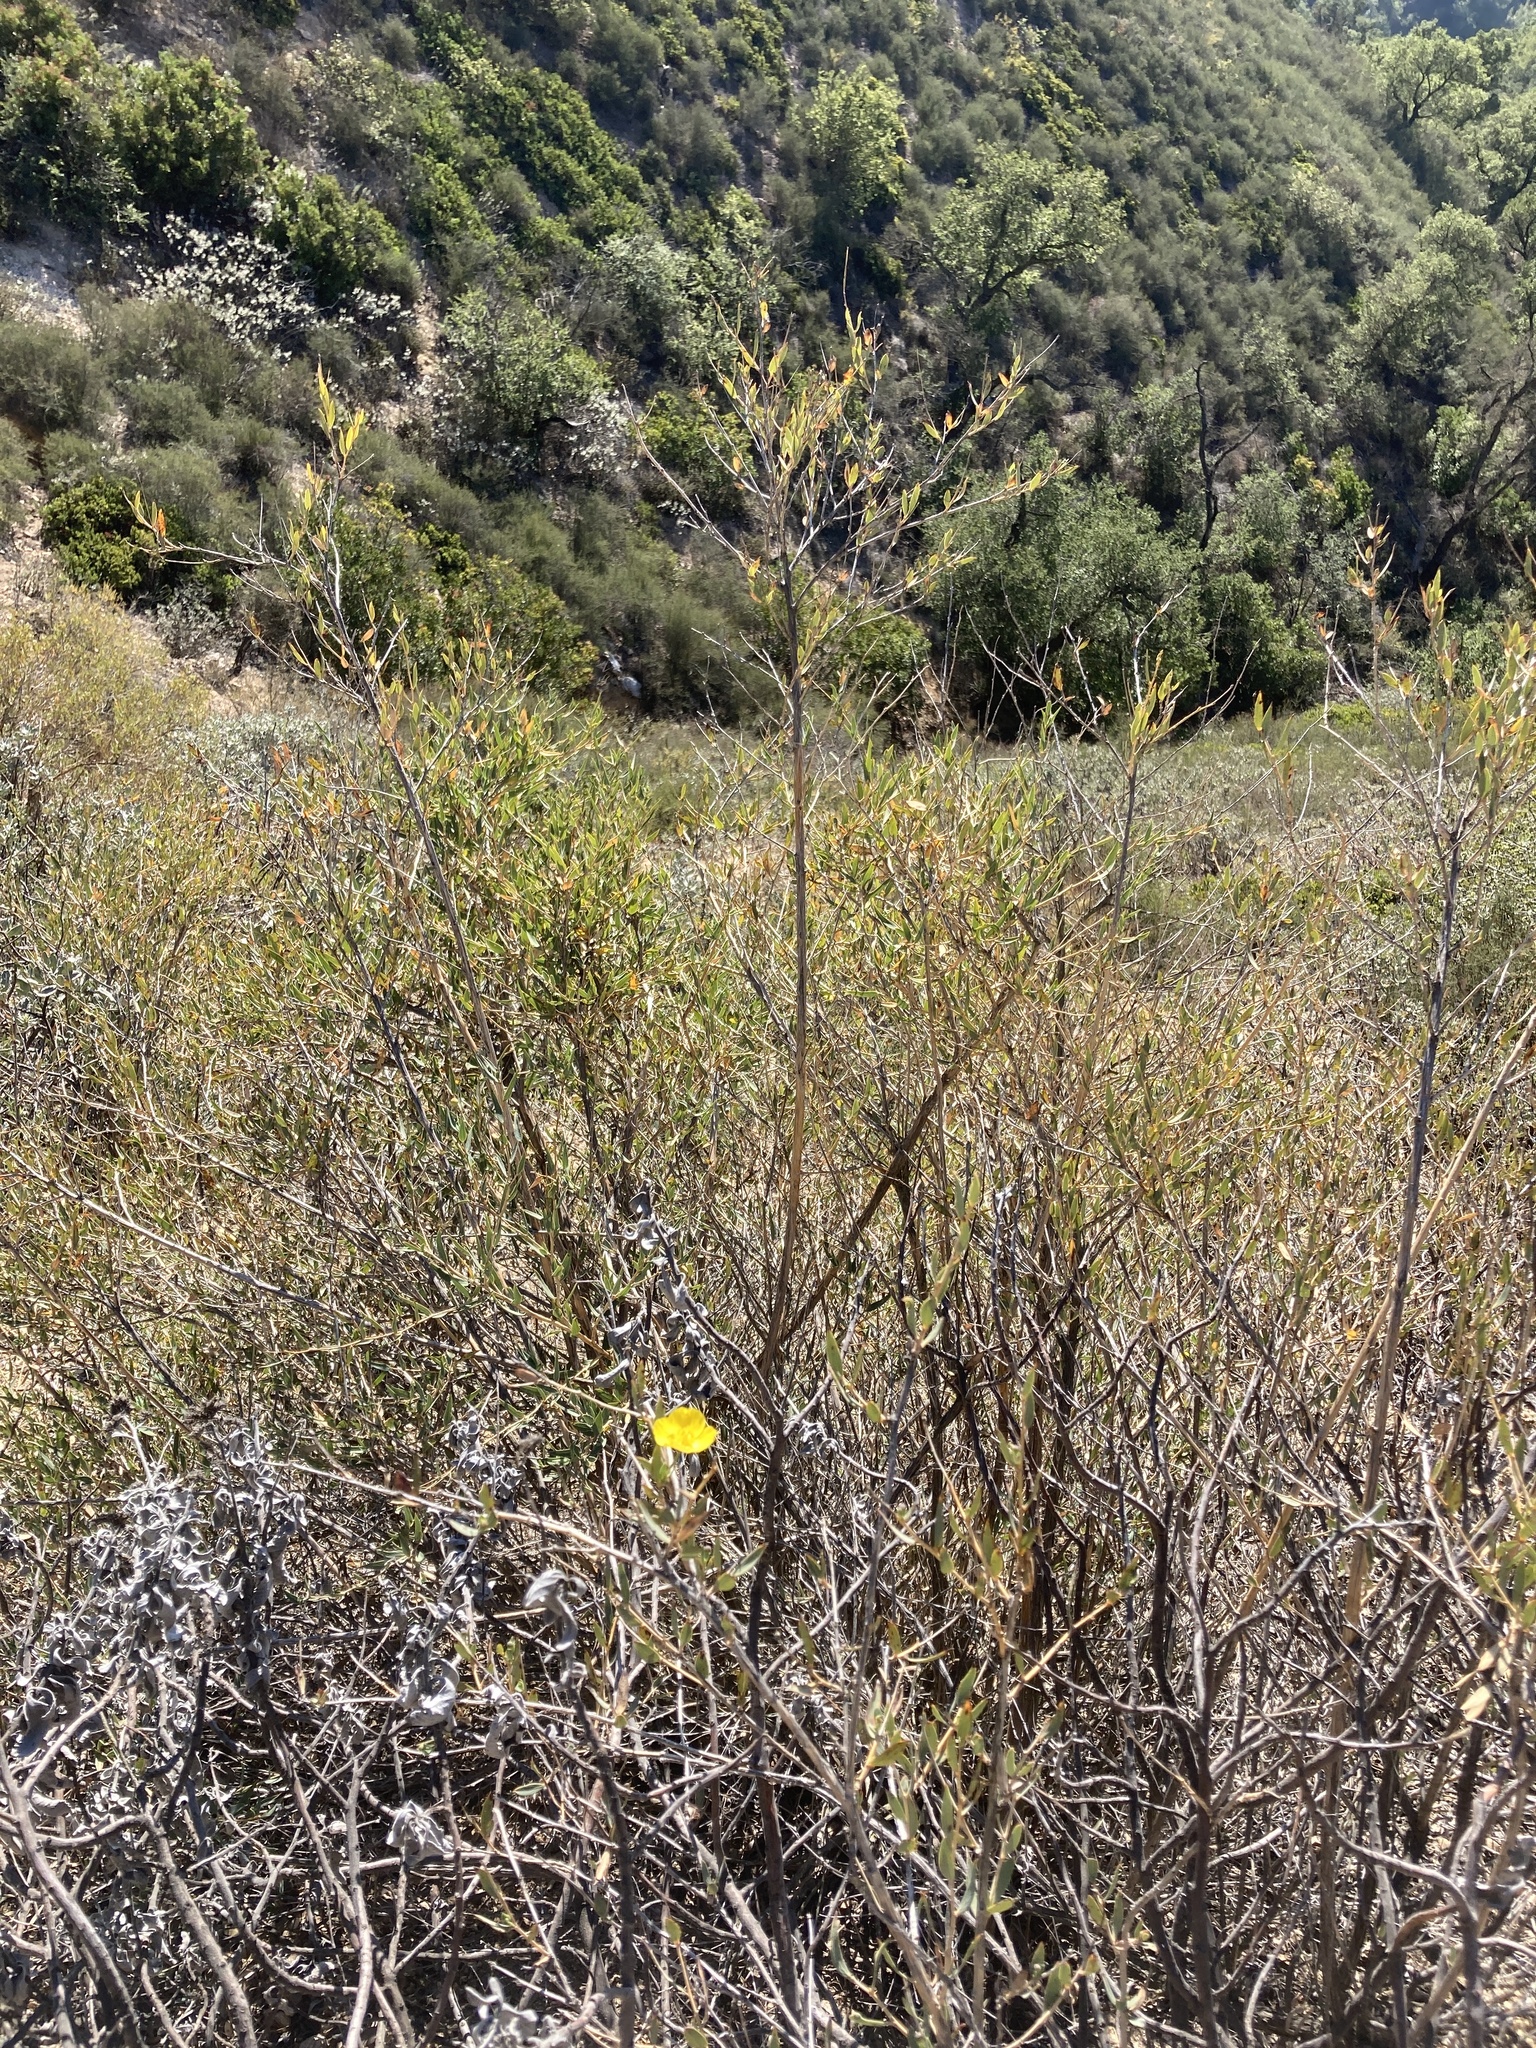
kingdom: Plantae
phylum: Tracheophyta
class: Magnoliopsida
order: Ranunculales
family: Papaveraceae
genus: Dendromecon
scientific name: Dendromecon rigida
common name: Tree poppy
